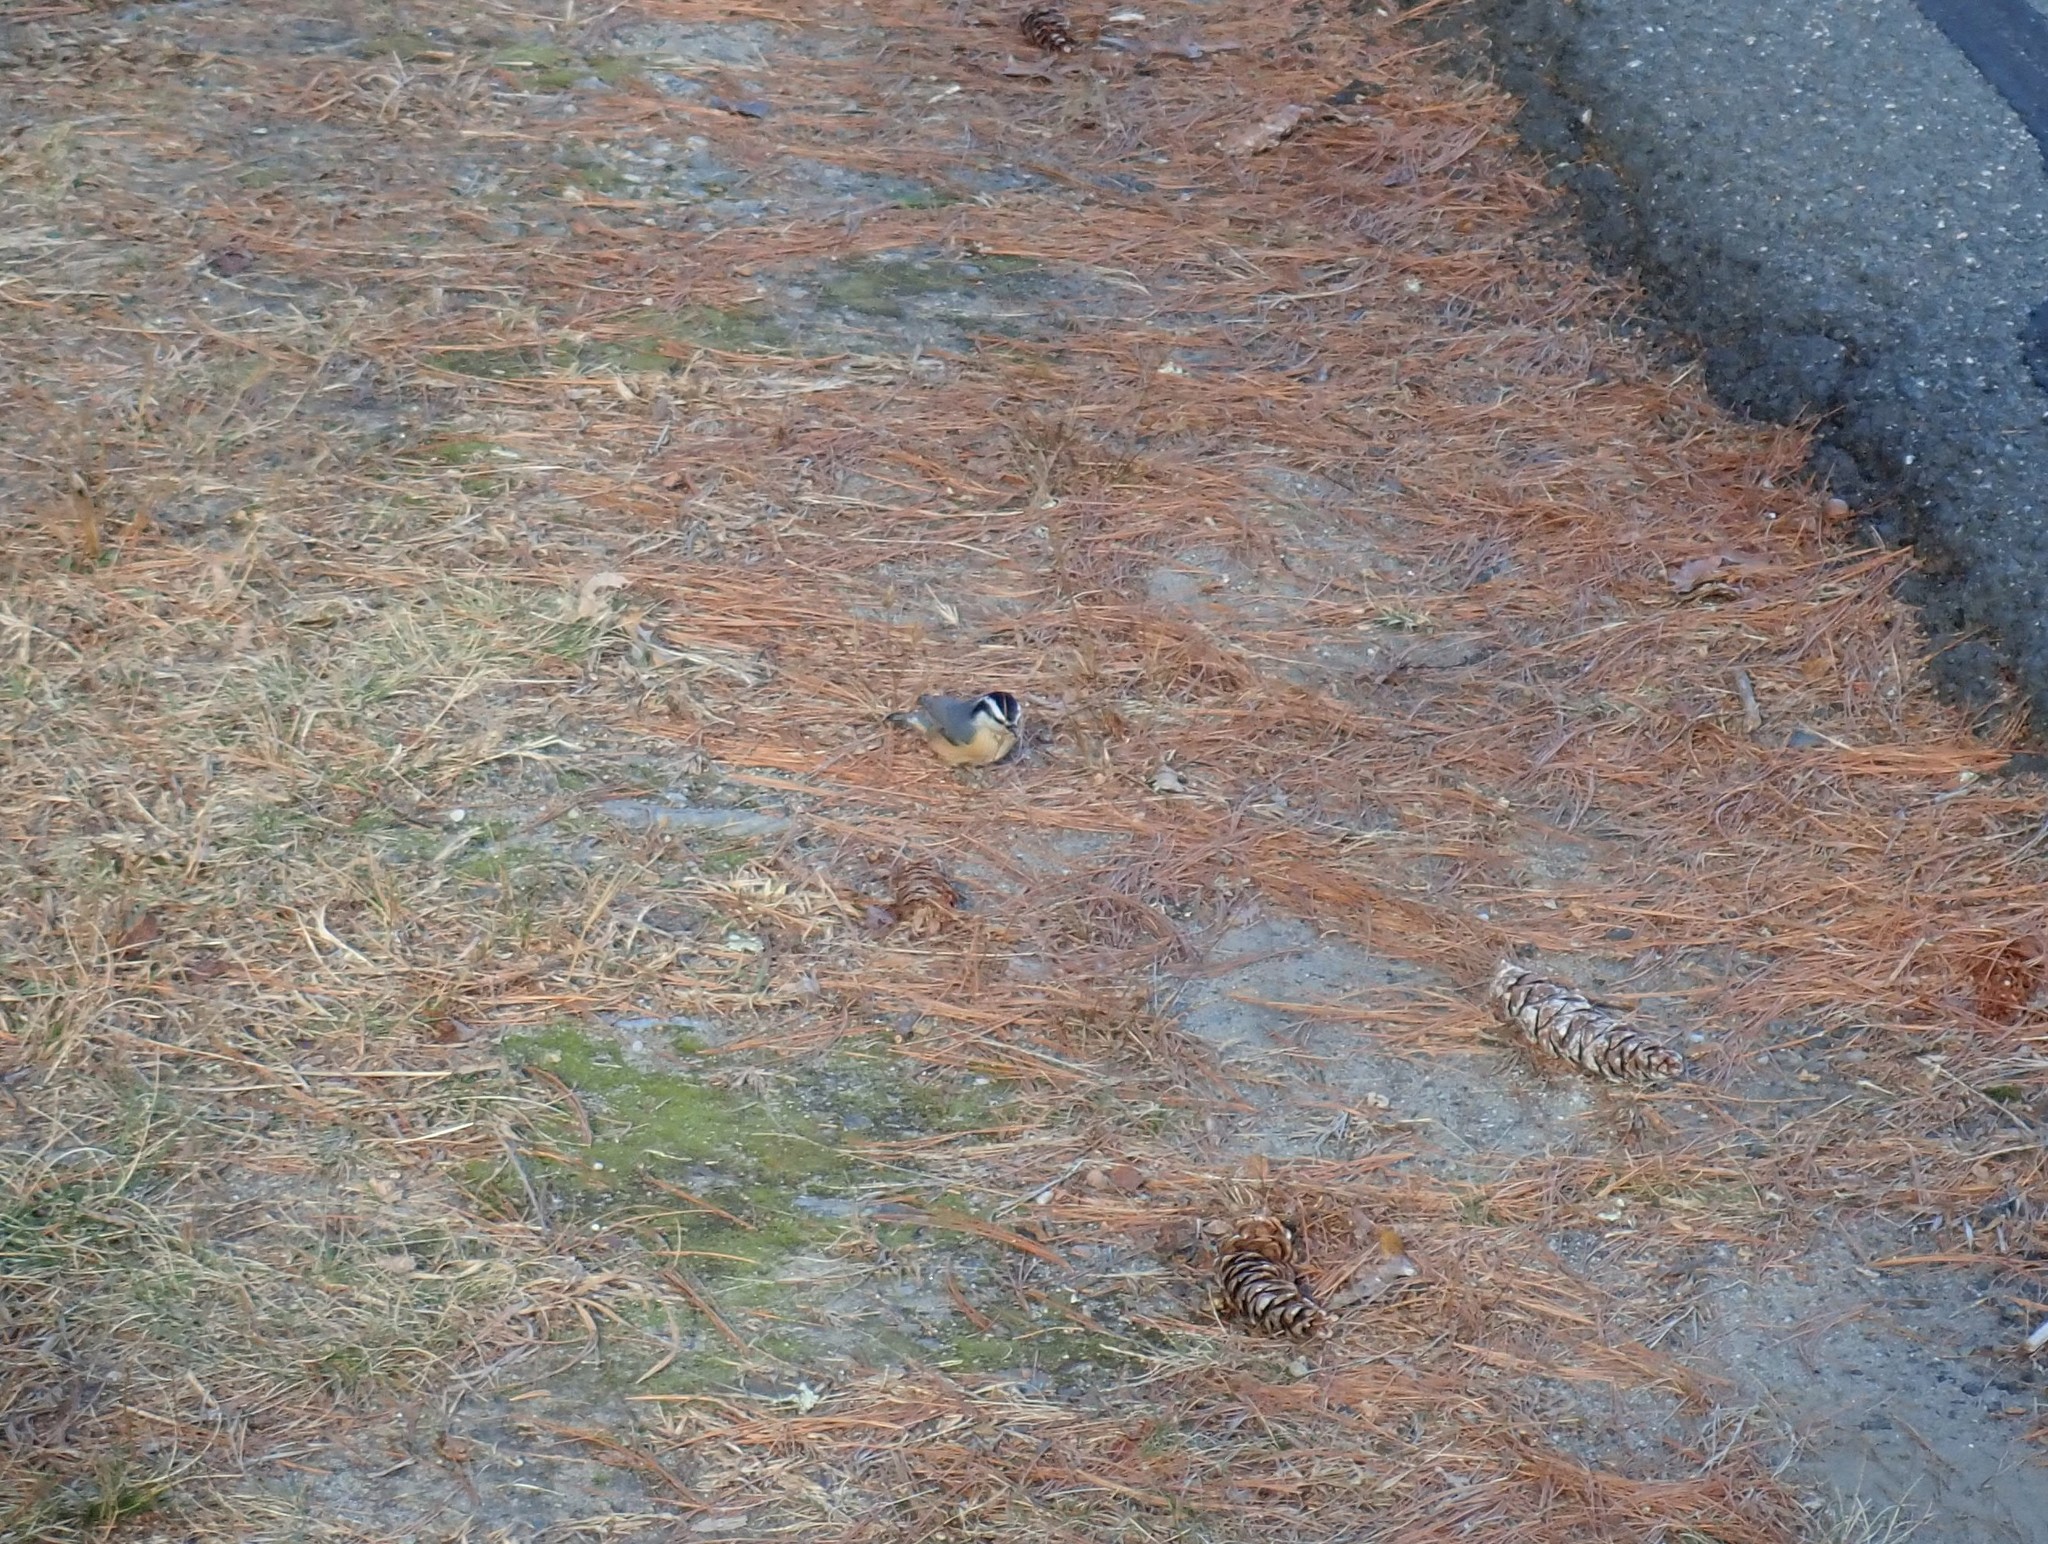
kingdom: Animalia
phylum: Chordata
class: Aves
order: Passeriformes
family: Sittidae
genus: Sitta
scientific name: Sitta canadensis
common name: Red-breasted nuthatch
